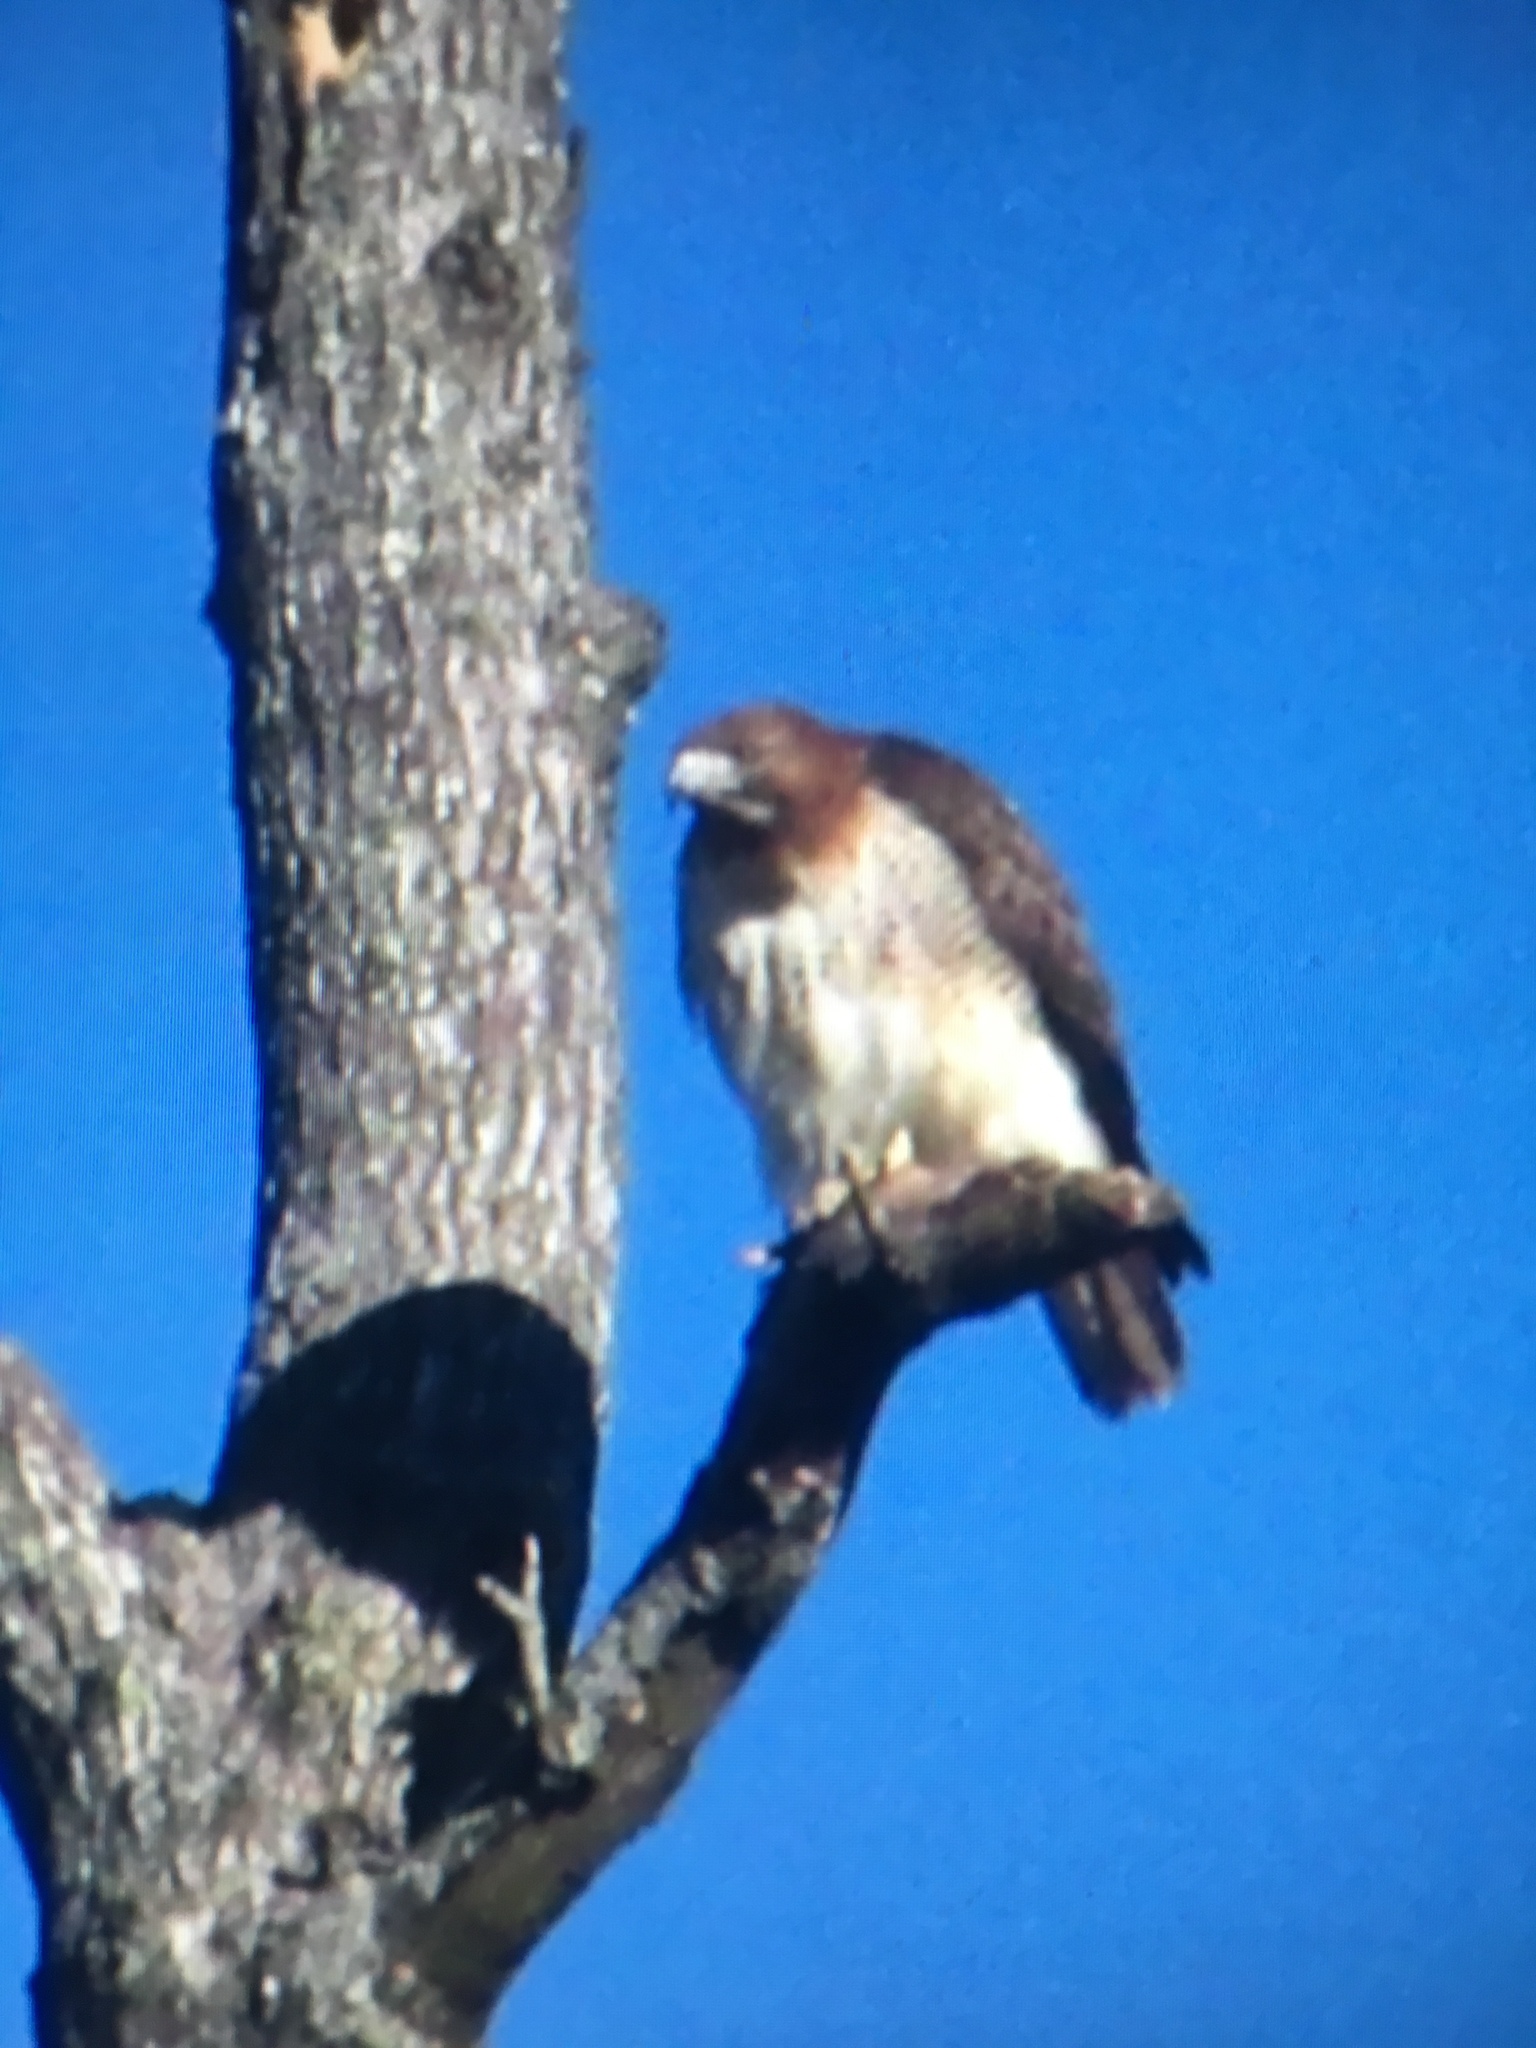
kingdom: Animalia
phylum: Chordata
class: Aves
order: Accipitriformes
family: Accipitridae
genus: Buteo
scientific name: Buteo jamaicensis
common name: Red-tailed hawk
